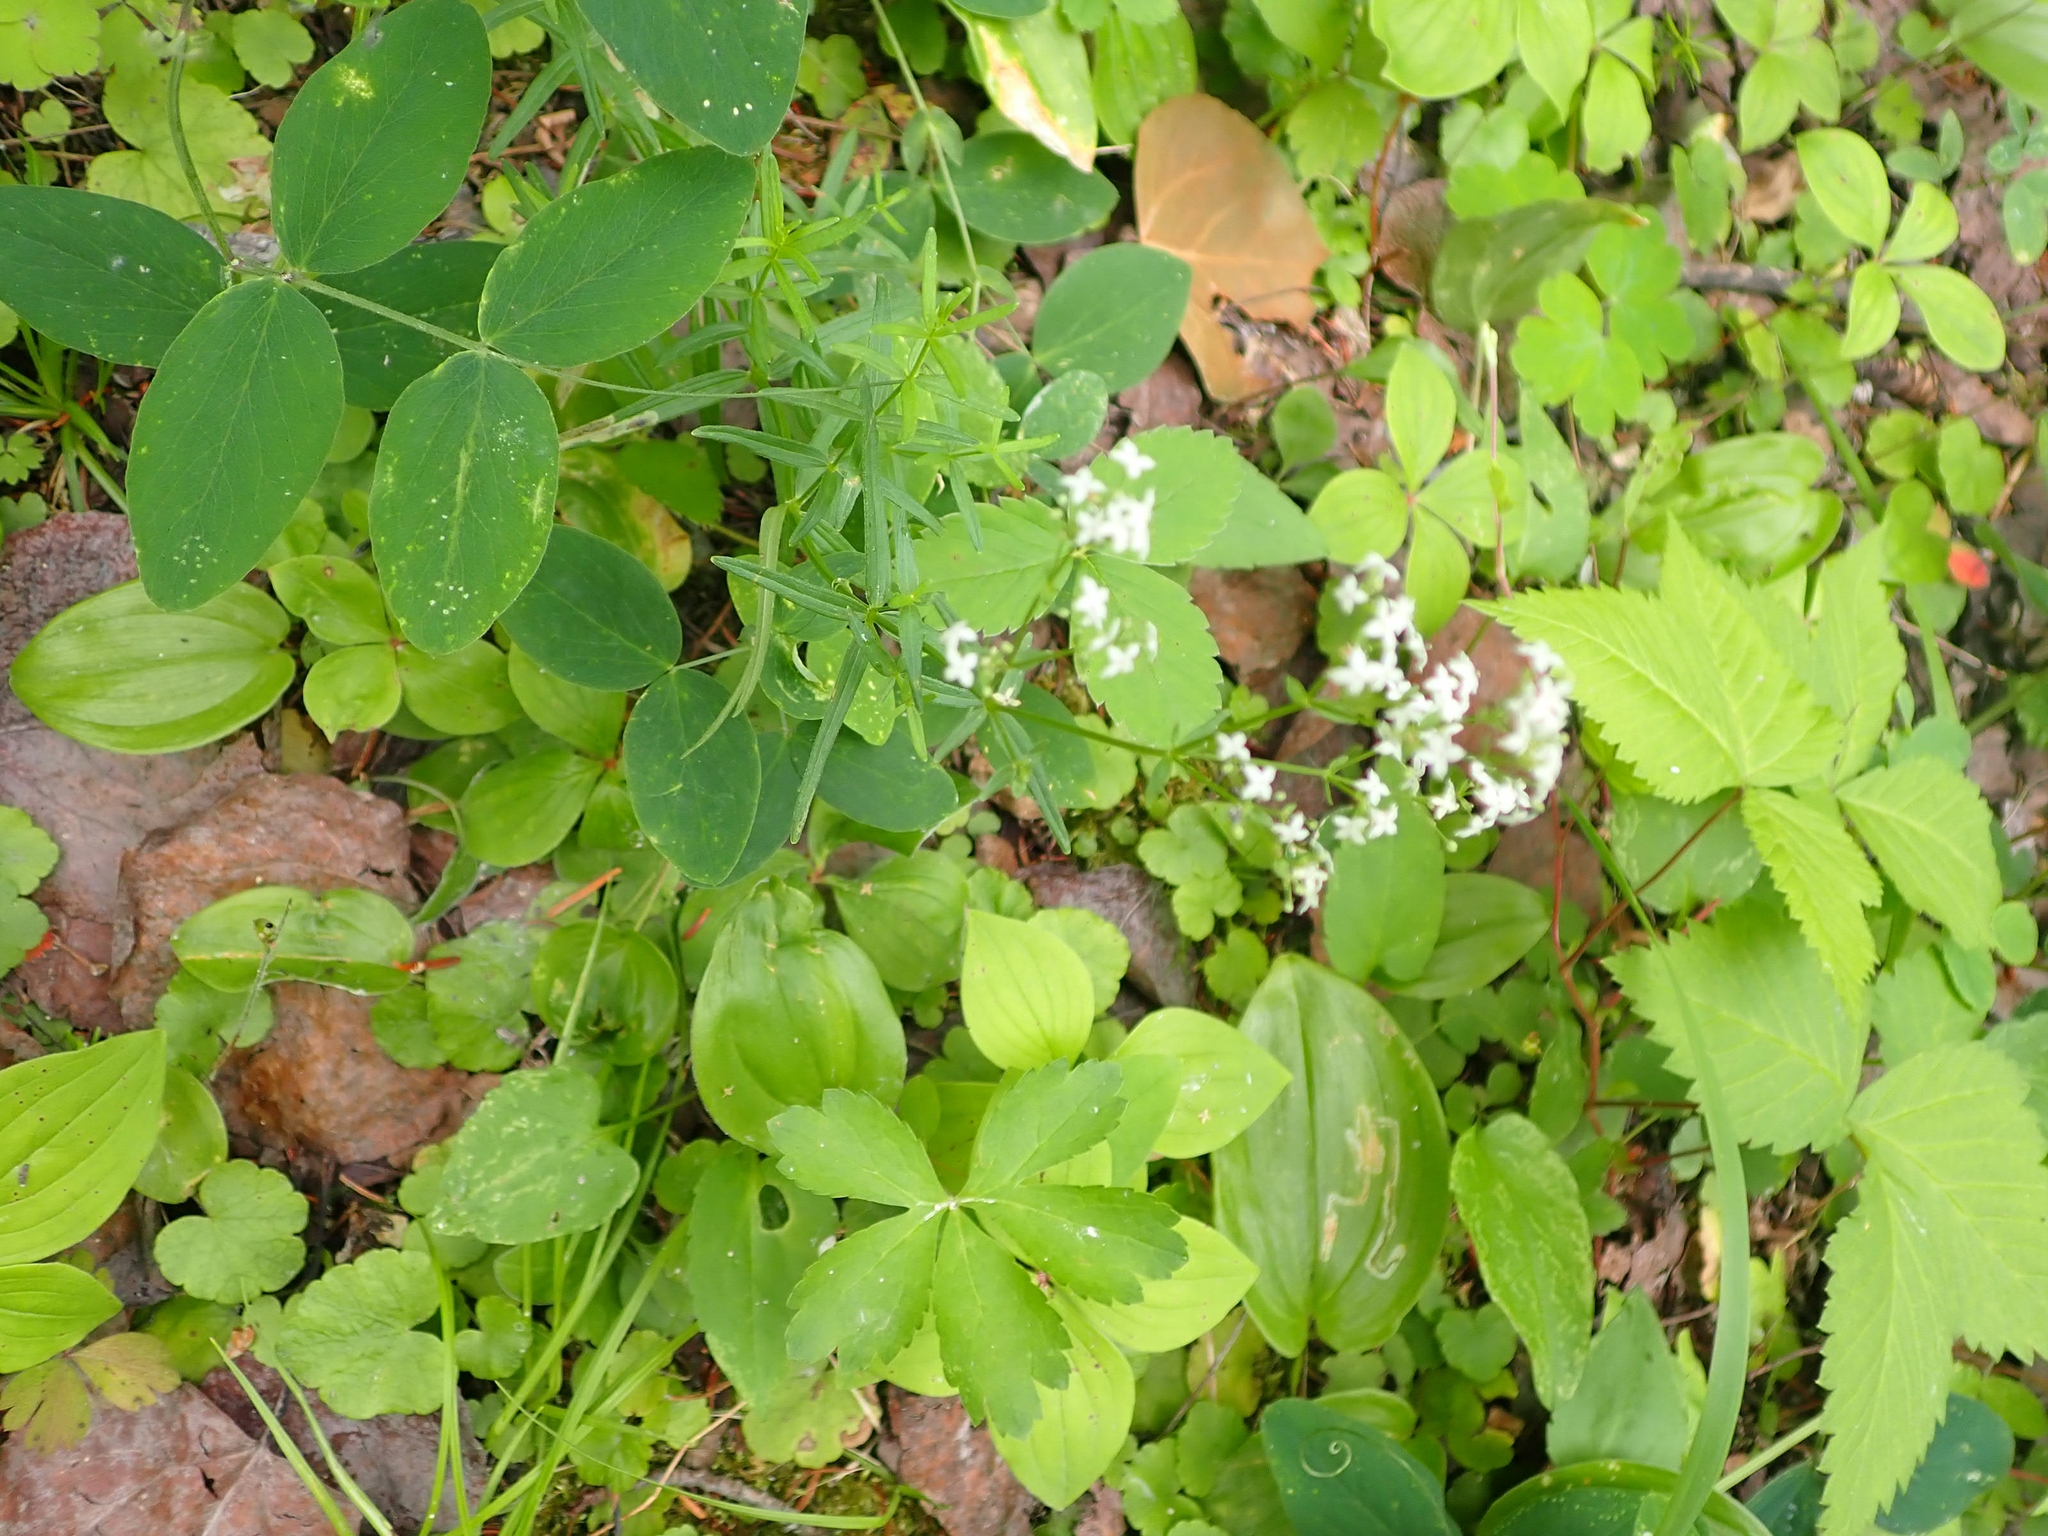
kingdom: Plantae
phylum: Tracheophyta
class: Magnoliopsida
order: Gentianales
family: Rubiaceae
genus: Galium
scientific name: Galium boreale
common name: Northern bedstraw
